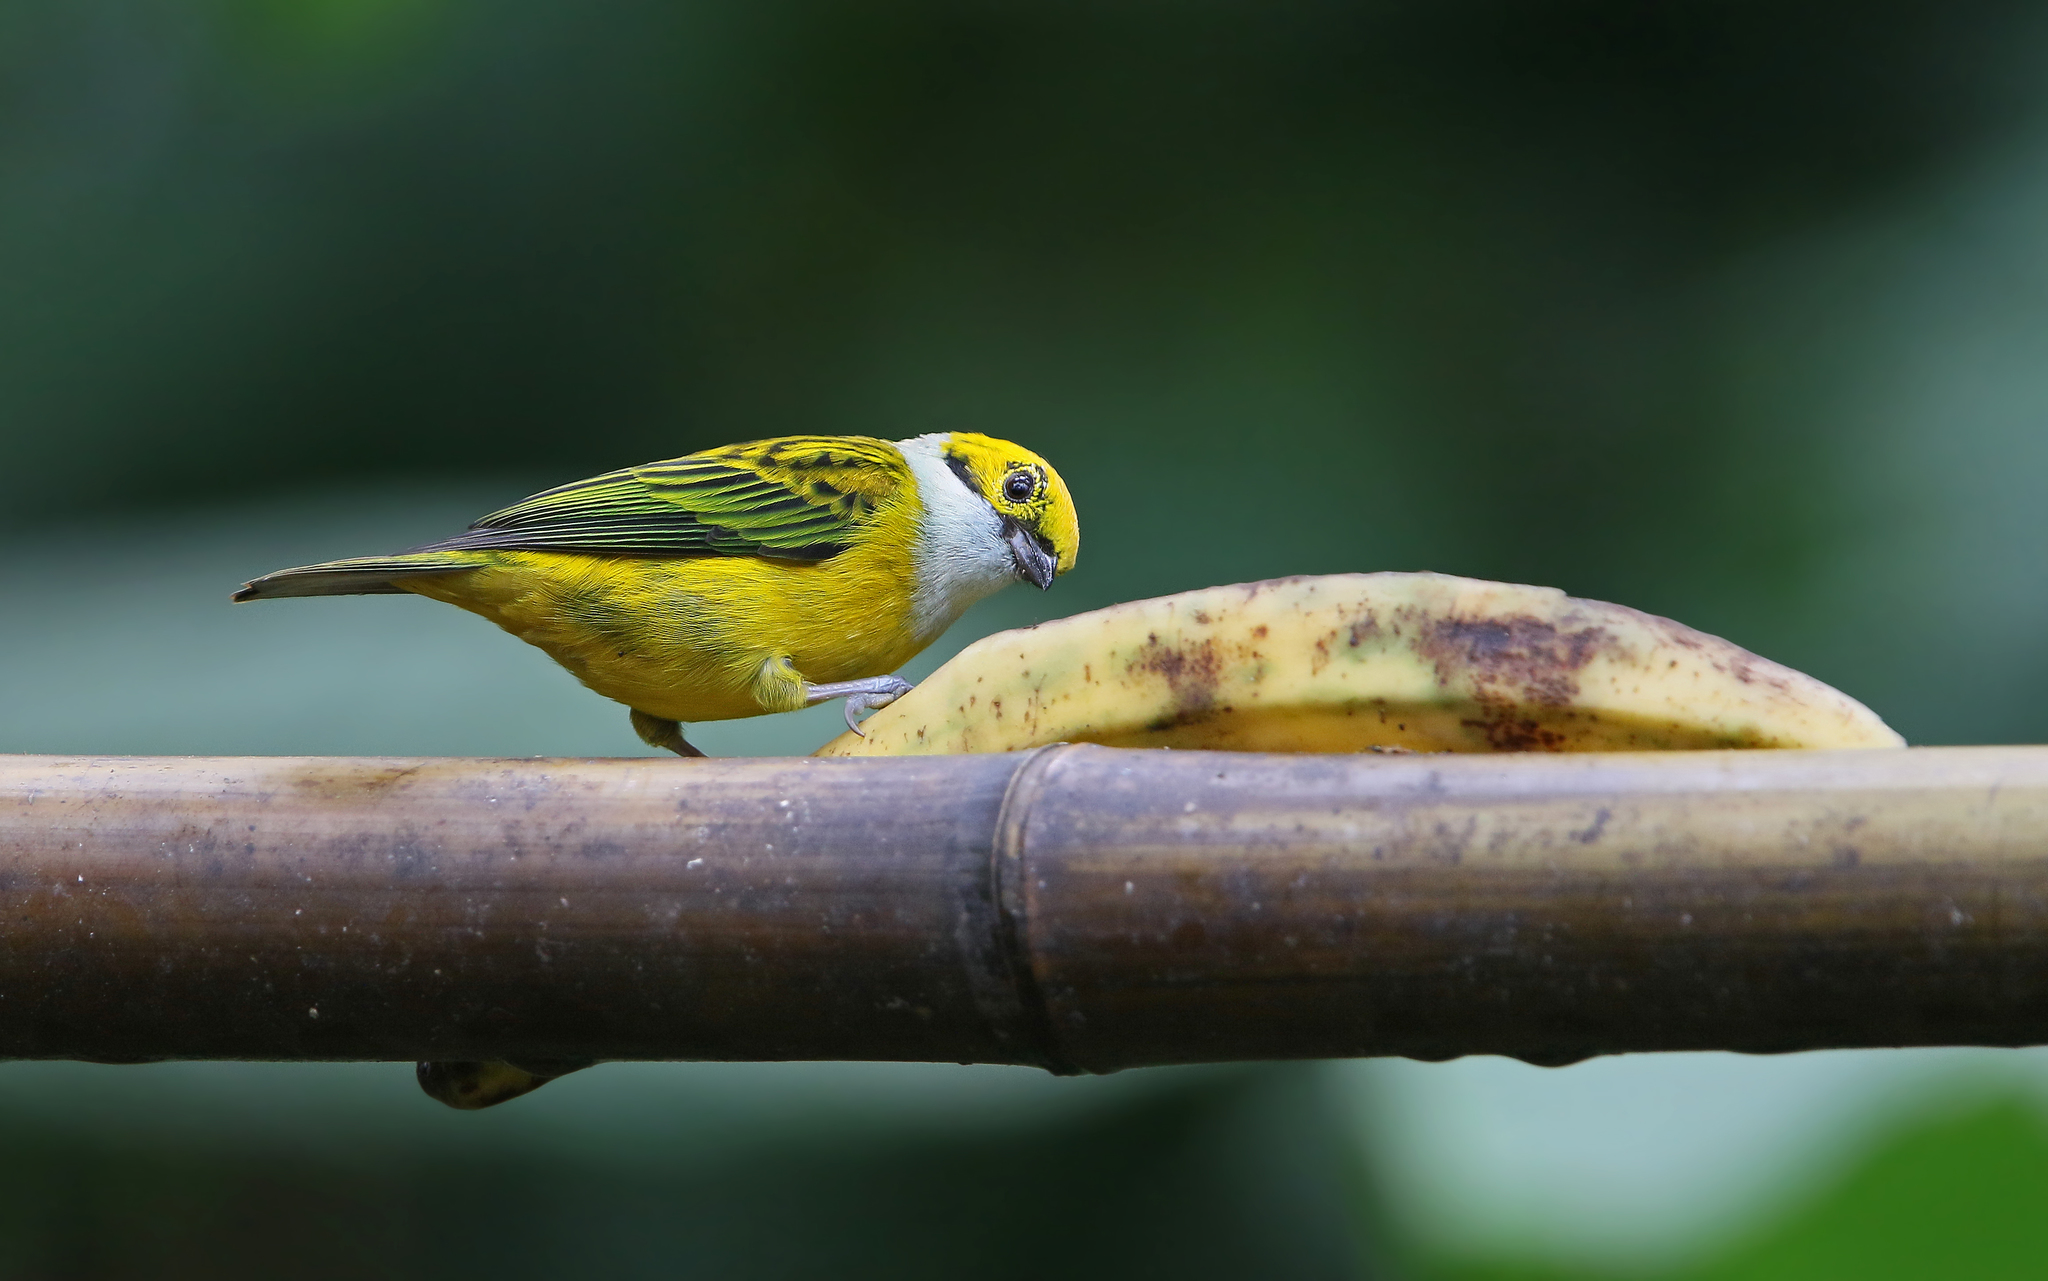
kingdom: Animalia
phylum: Chordata
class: Aves
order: Passeriformes
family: Thraupidae
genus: Tangara
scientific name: Tangara icterocephala
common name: Silver-throated tanager
